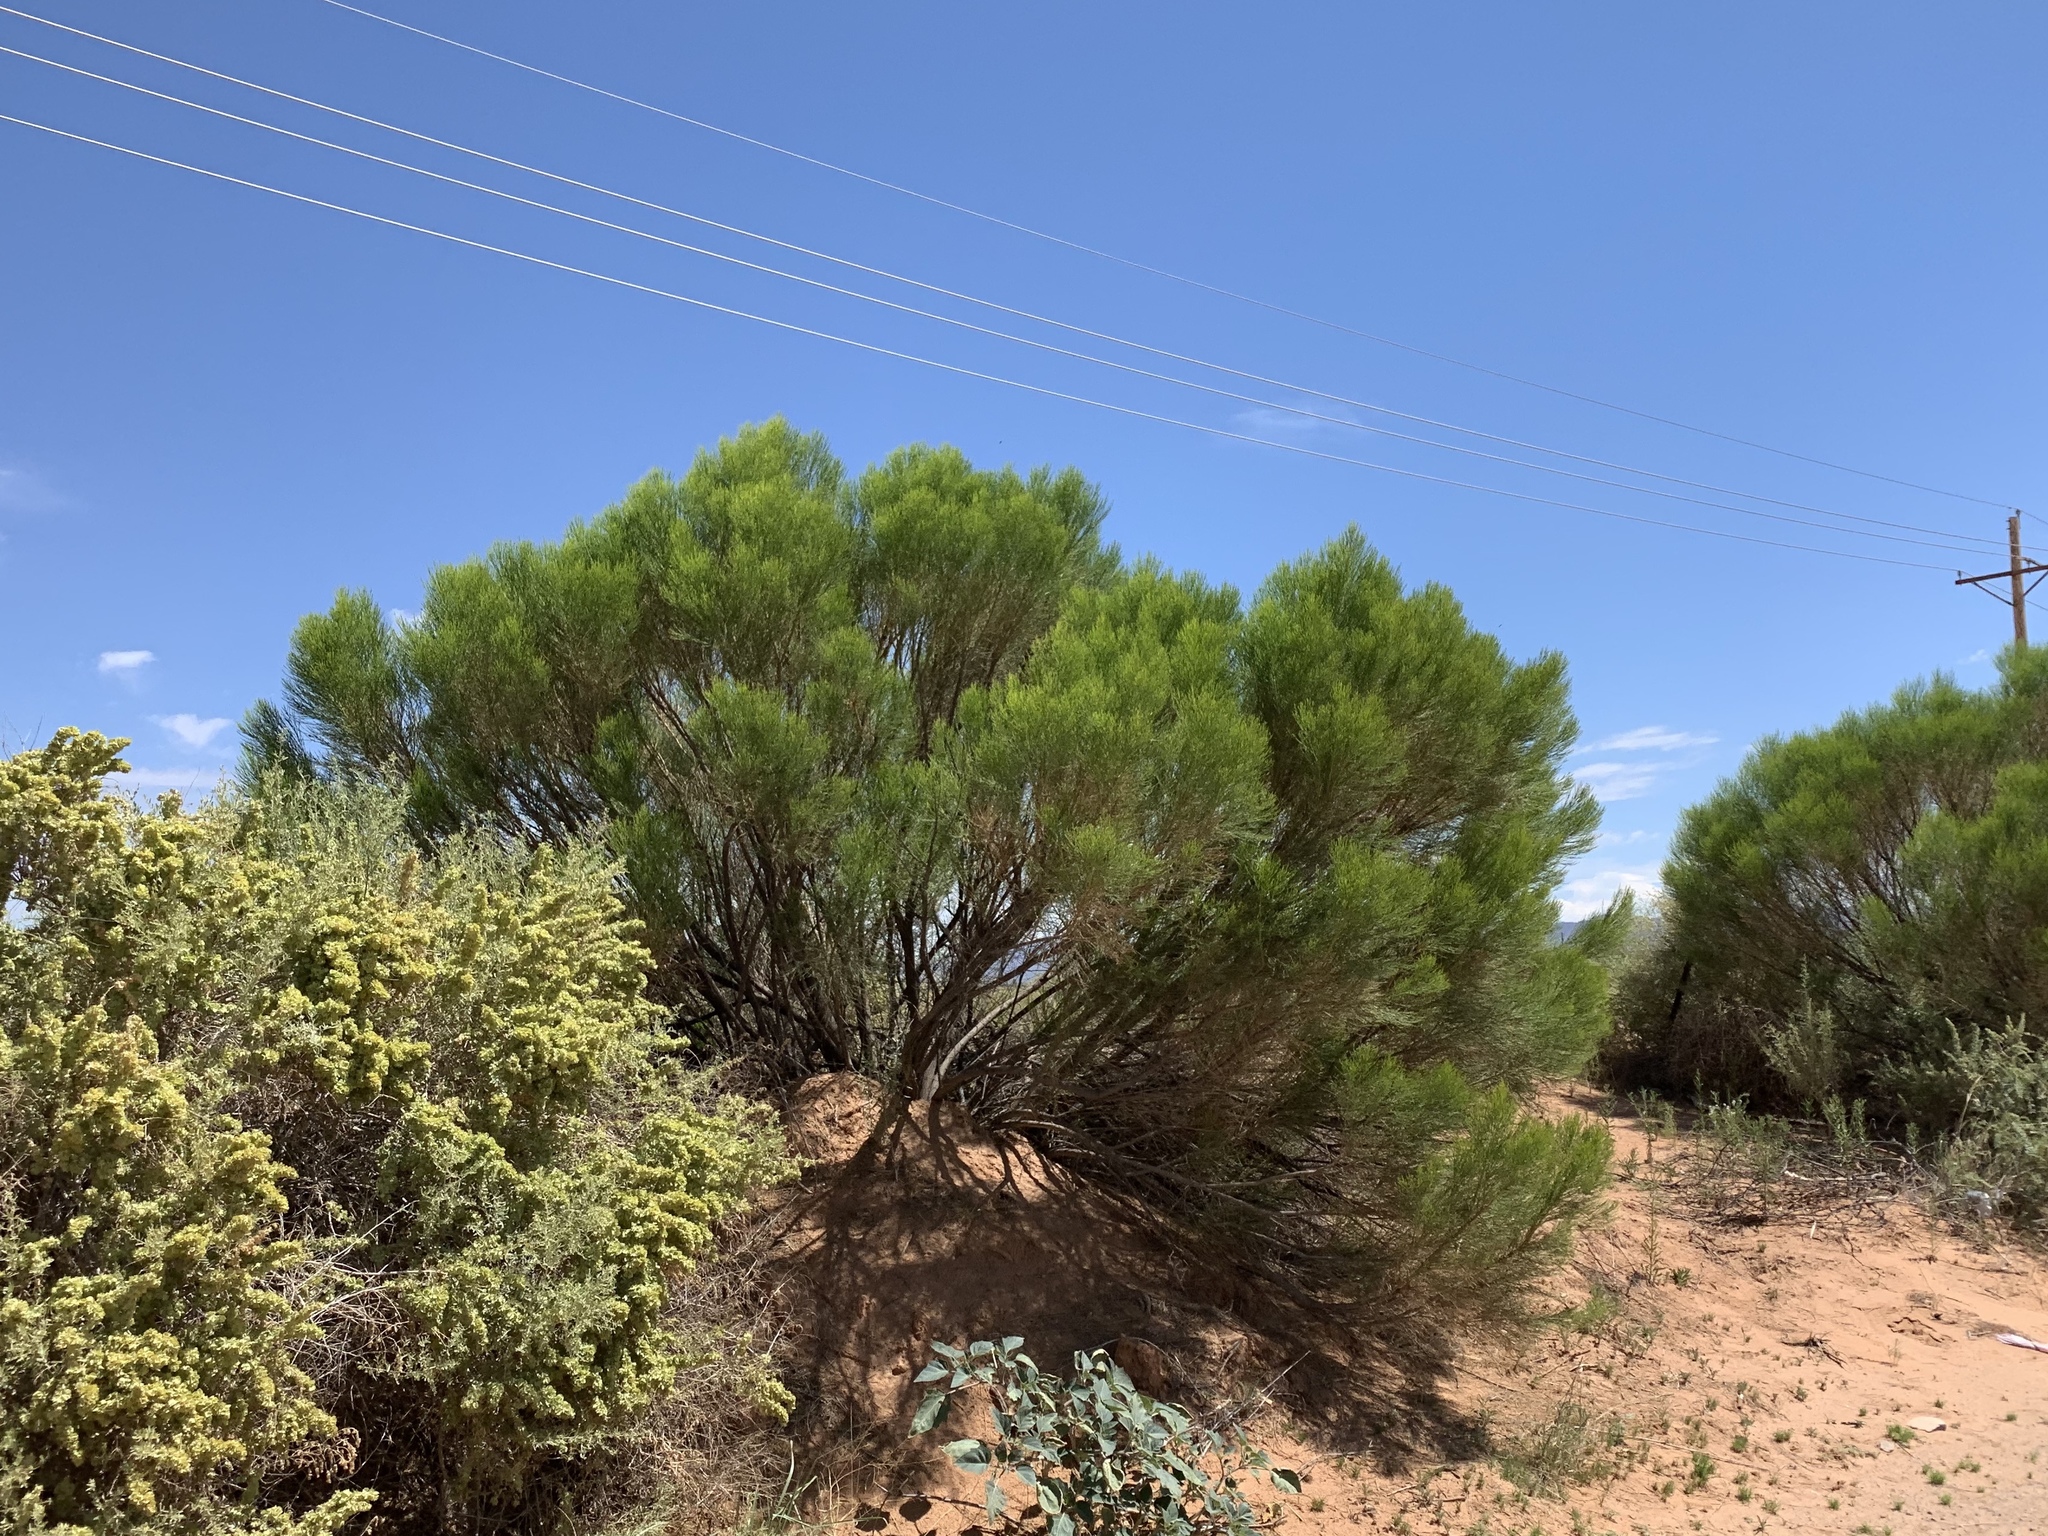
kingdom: Plantae
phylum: Tracheophyta
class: Magnoliopsida
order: Asterales
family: Asteraceae
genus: Baccharis
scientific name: Baccharis sarothroides
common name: Desert-broom
